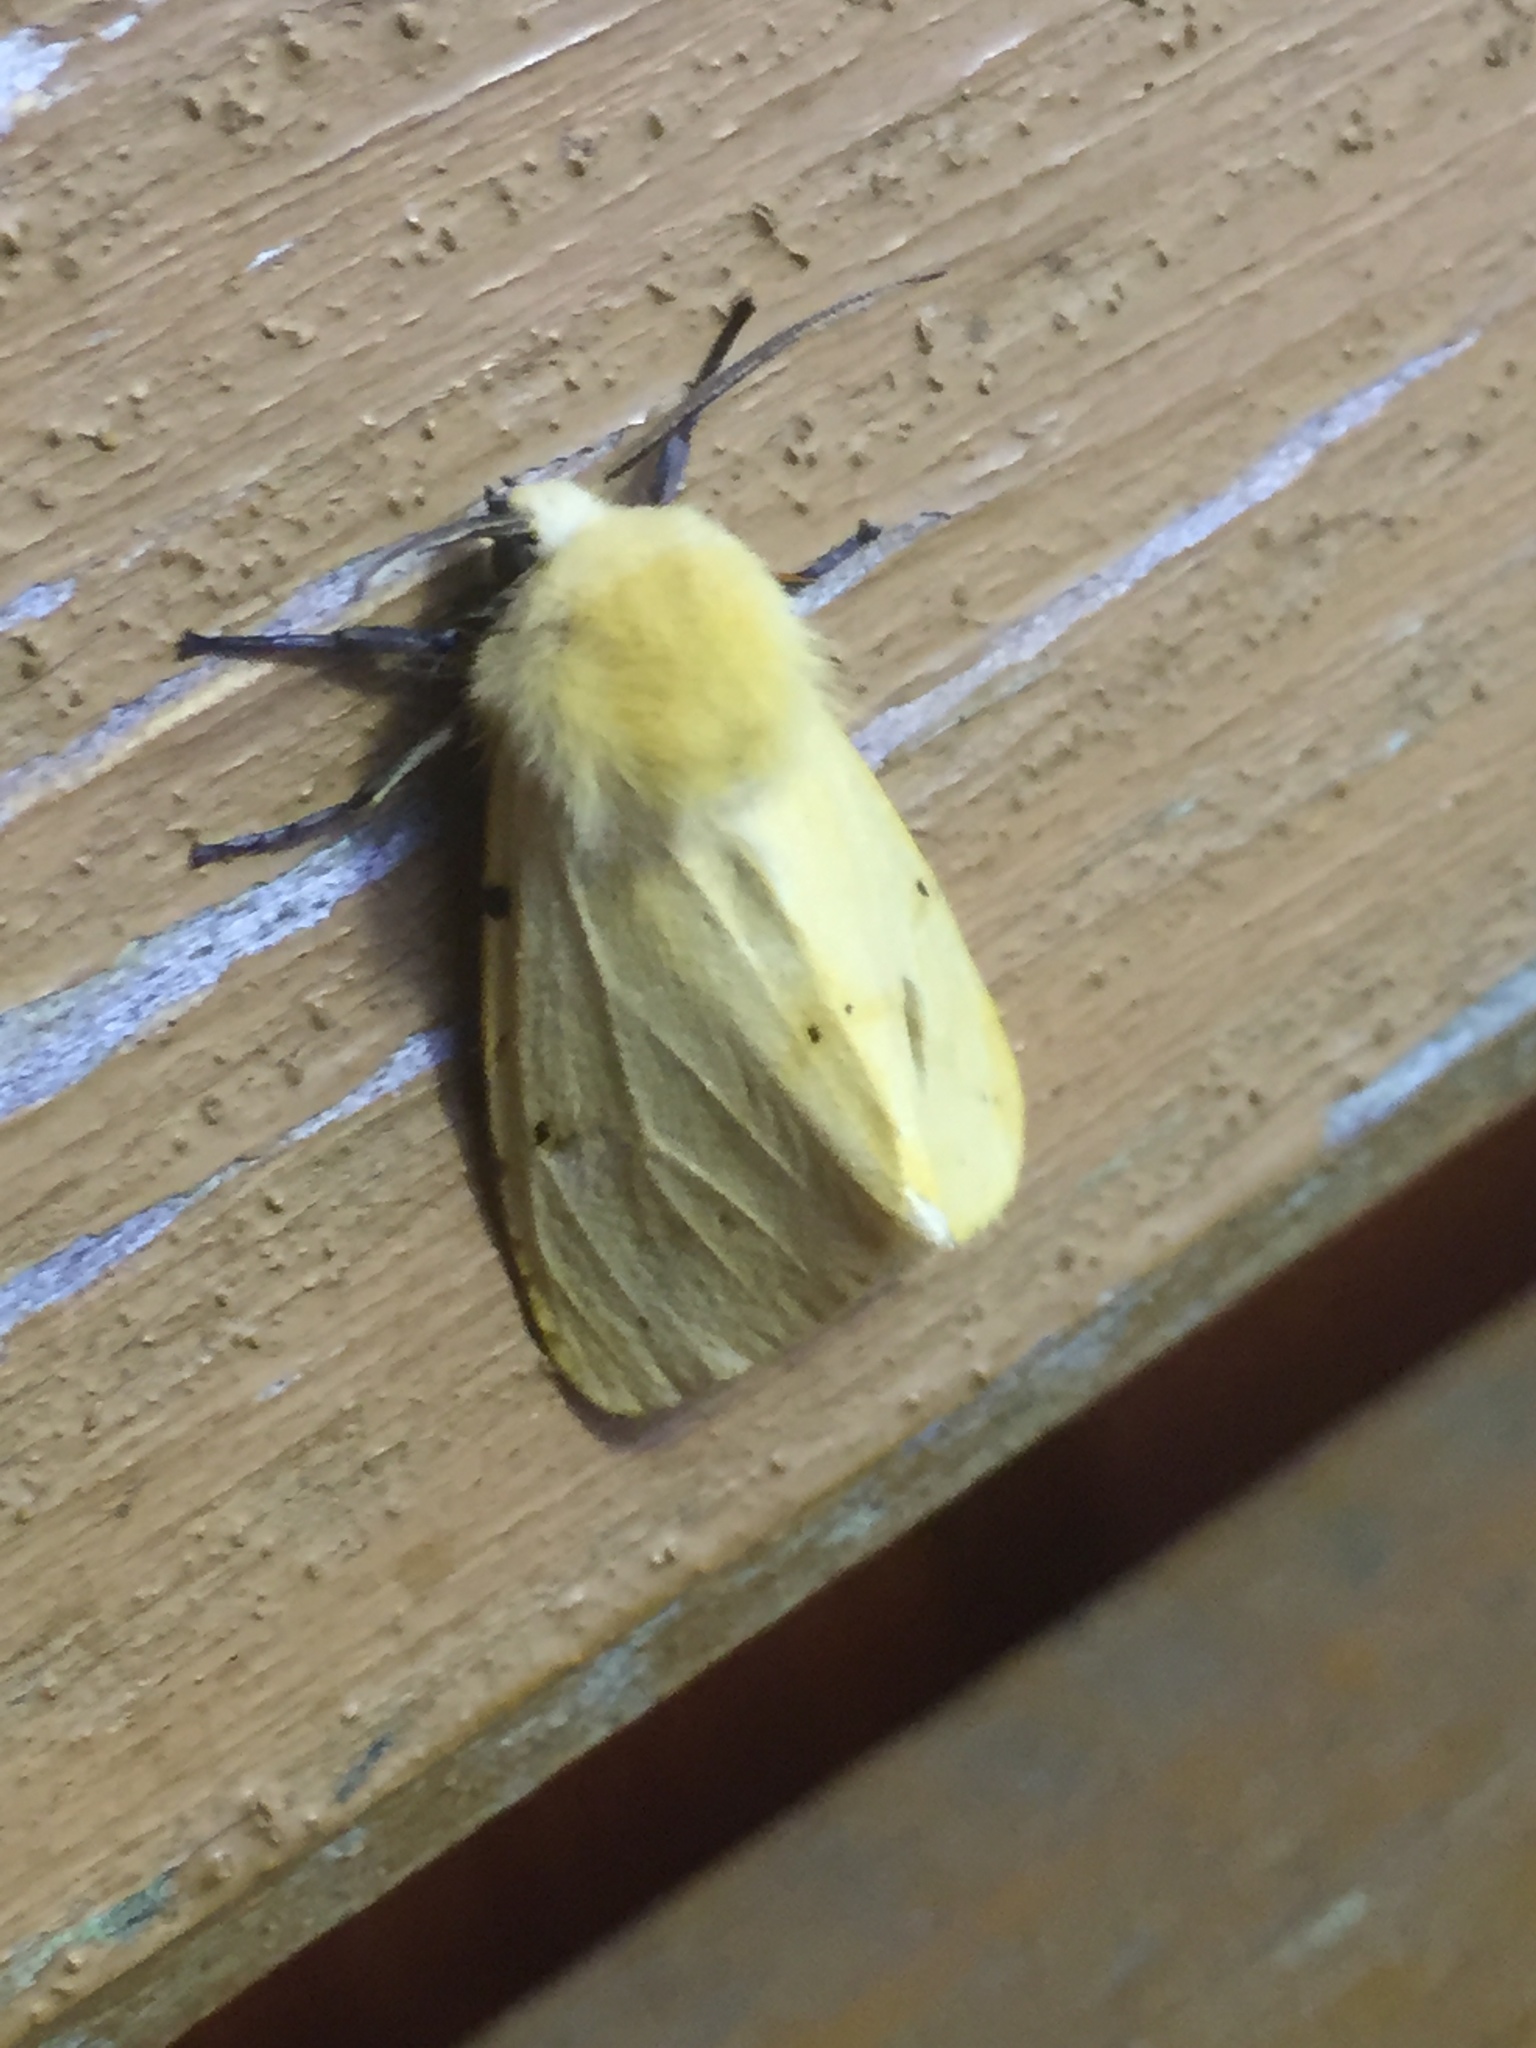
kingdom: Animalia
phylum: Arthropoda
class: Insecta
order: Lepidoptera
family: Erebidae
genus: Spilarctia
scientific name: Spilarctia lutea
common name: Buff ermine
